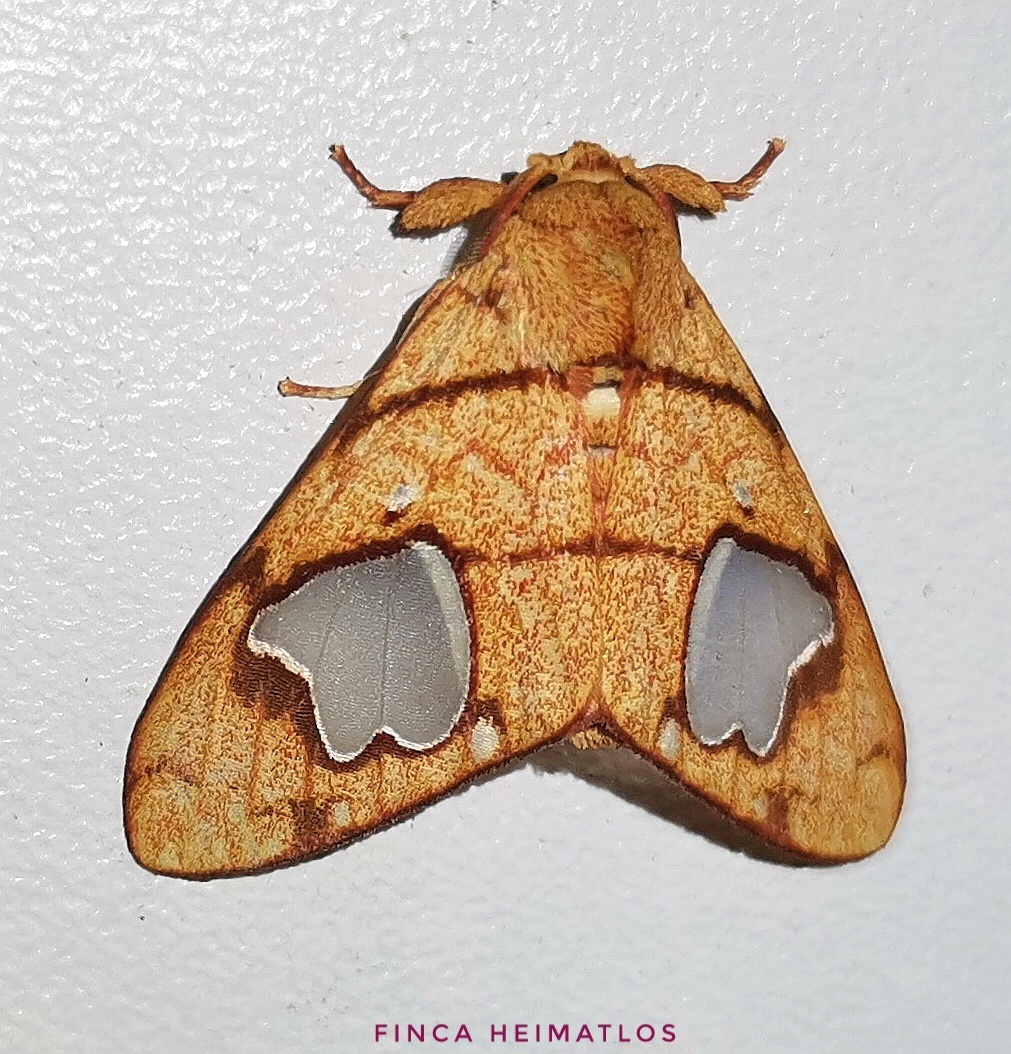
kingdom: Animalia
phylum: Arthropoda
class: Insecta
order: Lepidoptera
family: Erebidae
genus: Zatrephes
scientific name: Zatrephes trailii
